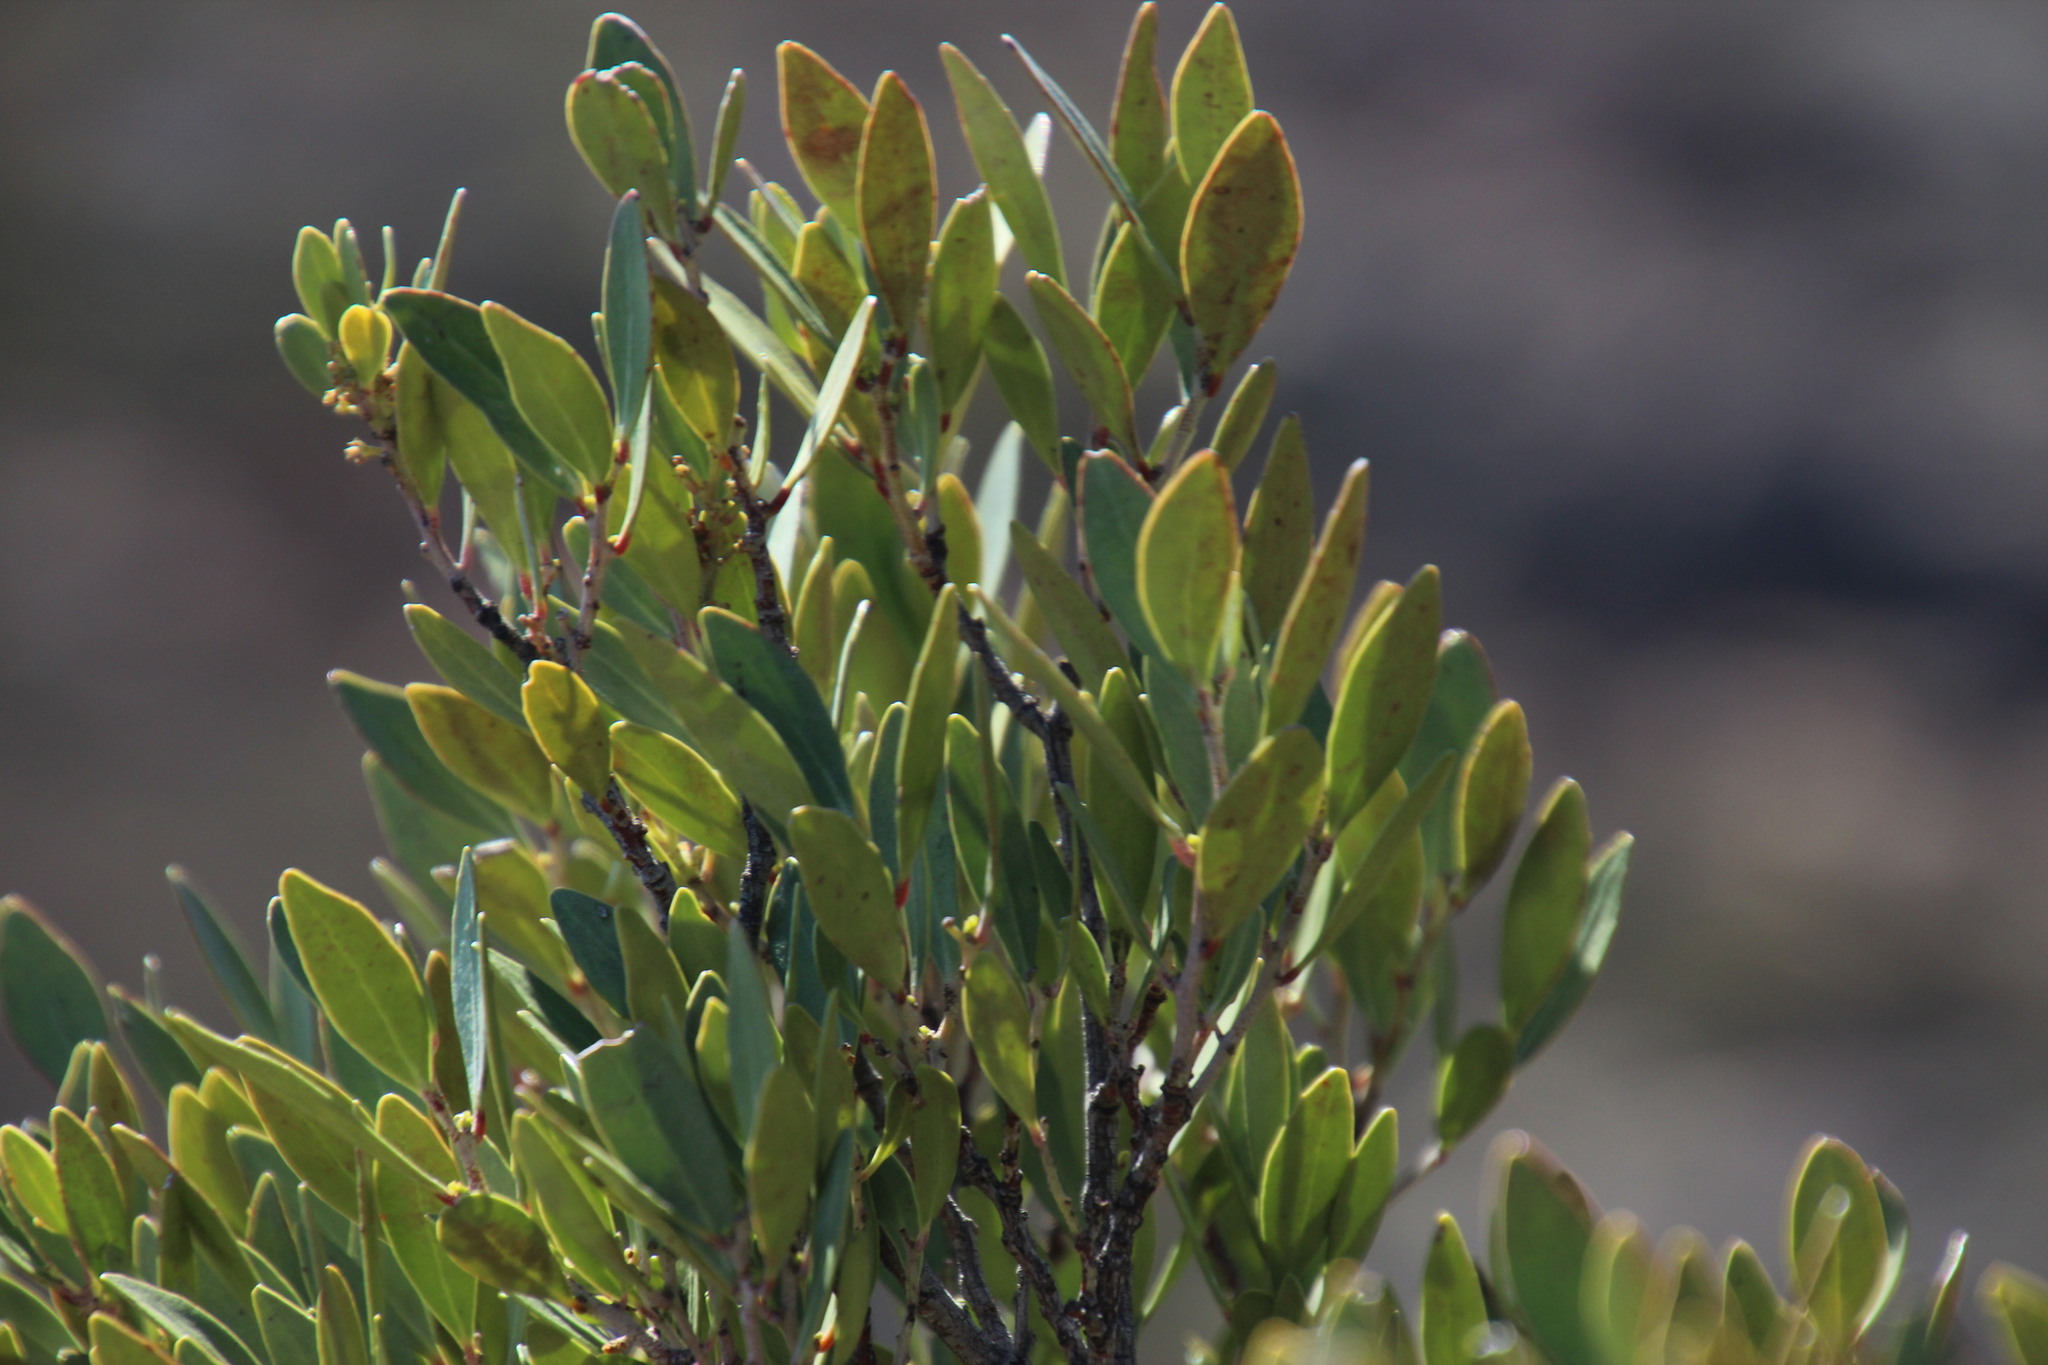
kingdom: Plantae
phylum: Tracheophyta
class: Magnoliopsida
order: Celastrales
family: Celastraceae
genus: Gymnosporia
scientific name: Gymnosporia laurina
